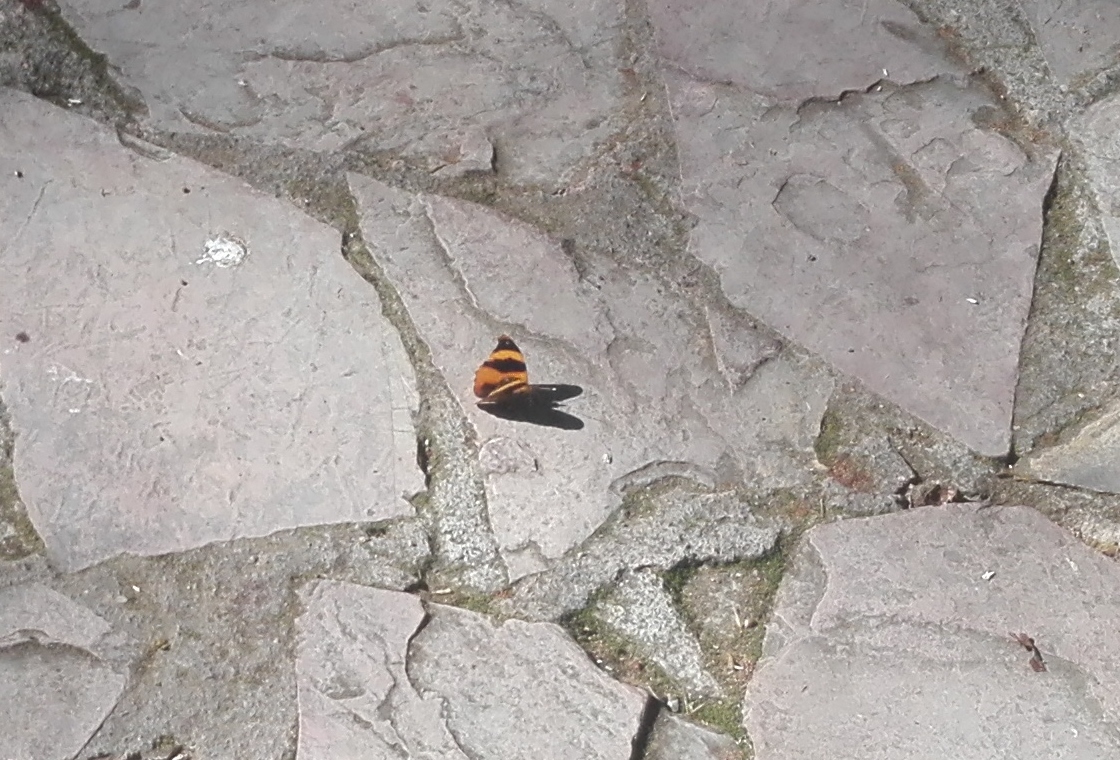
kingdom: Animalia
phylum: Arthropoda
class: Insecta
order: Lepidoptera
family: Nymphalidae
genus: Epiphile
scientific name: Epiphile adrasta
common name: Common banner
